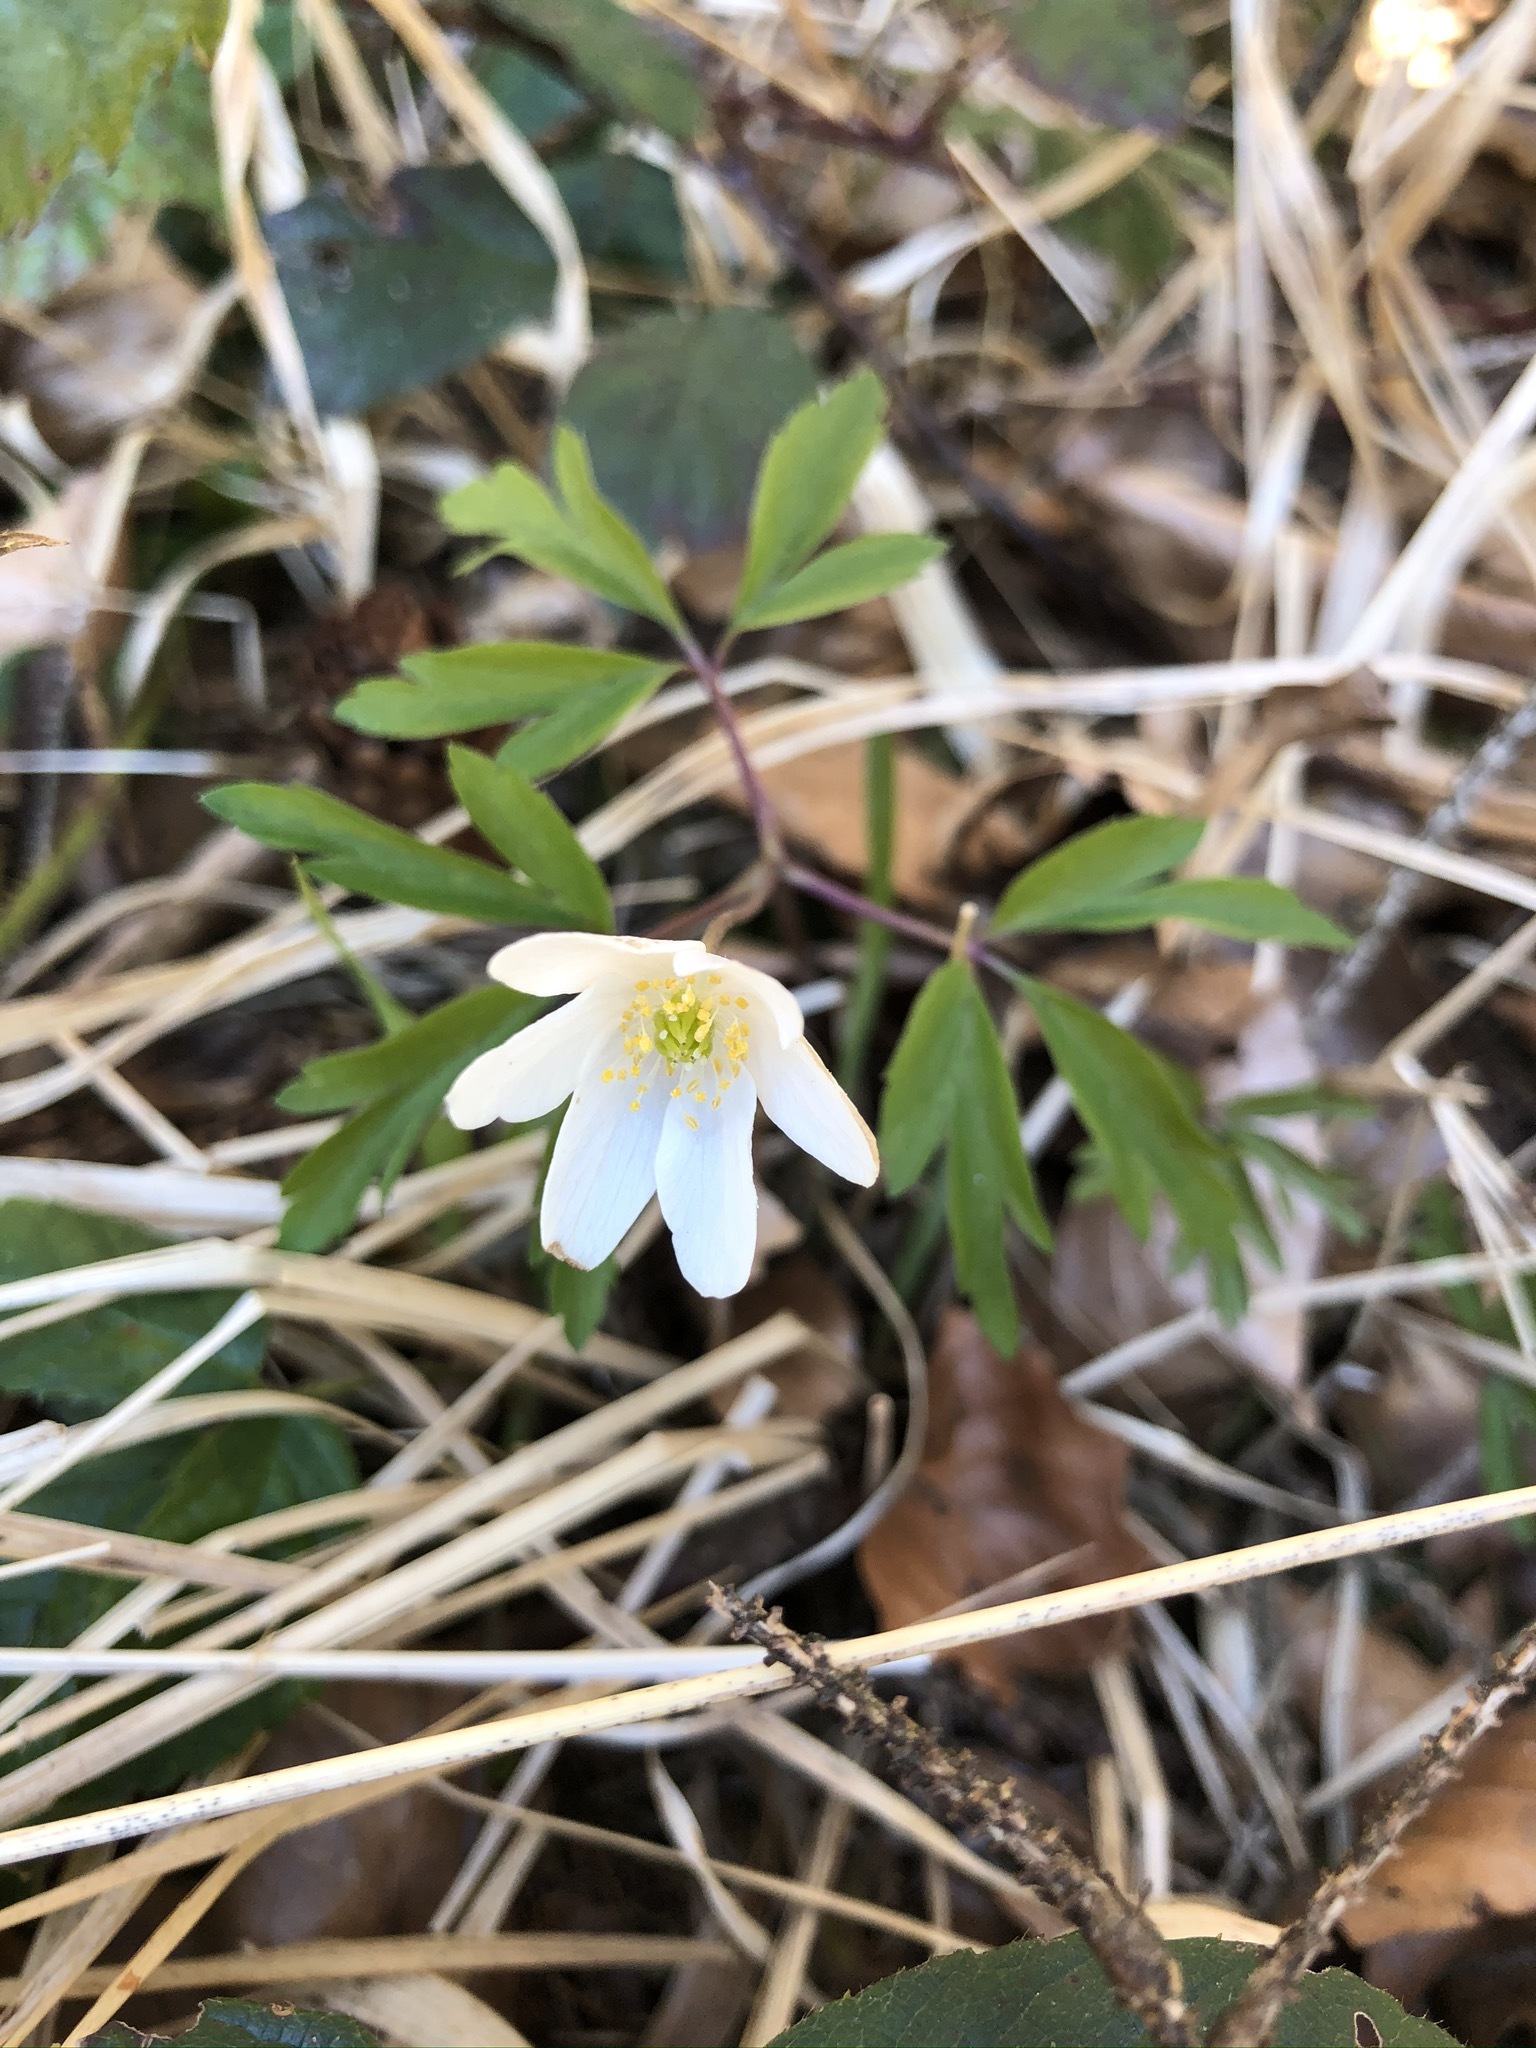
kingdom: Plantae
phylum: Tracheophyta
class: Magnoliopsida
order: Ranunculales
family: Ranunculaceae
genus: Anemone
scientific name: Anemone nemorosa
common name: Wood anemone
